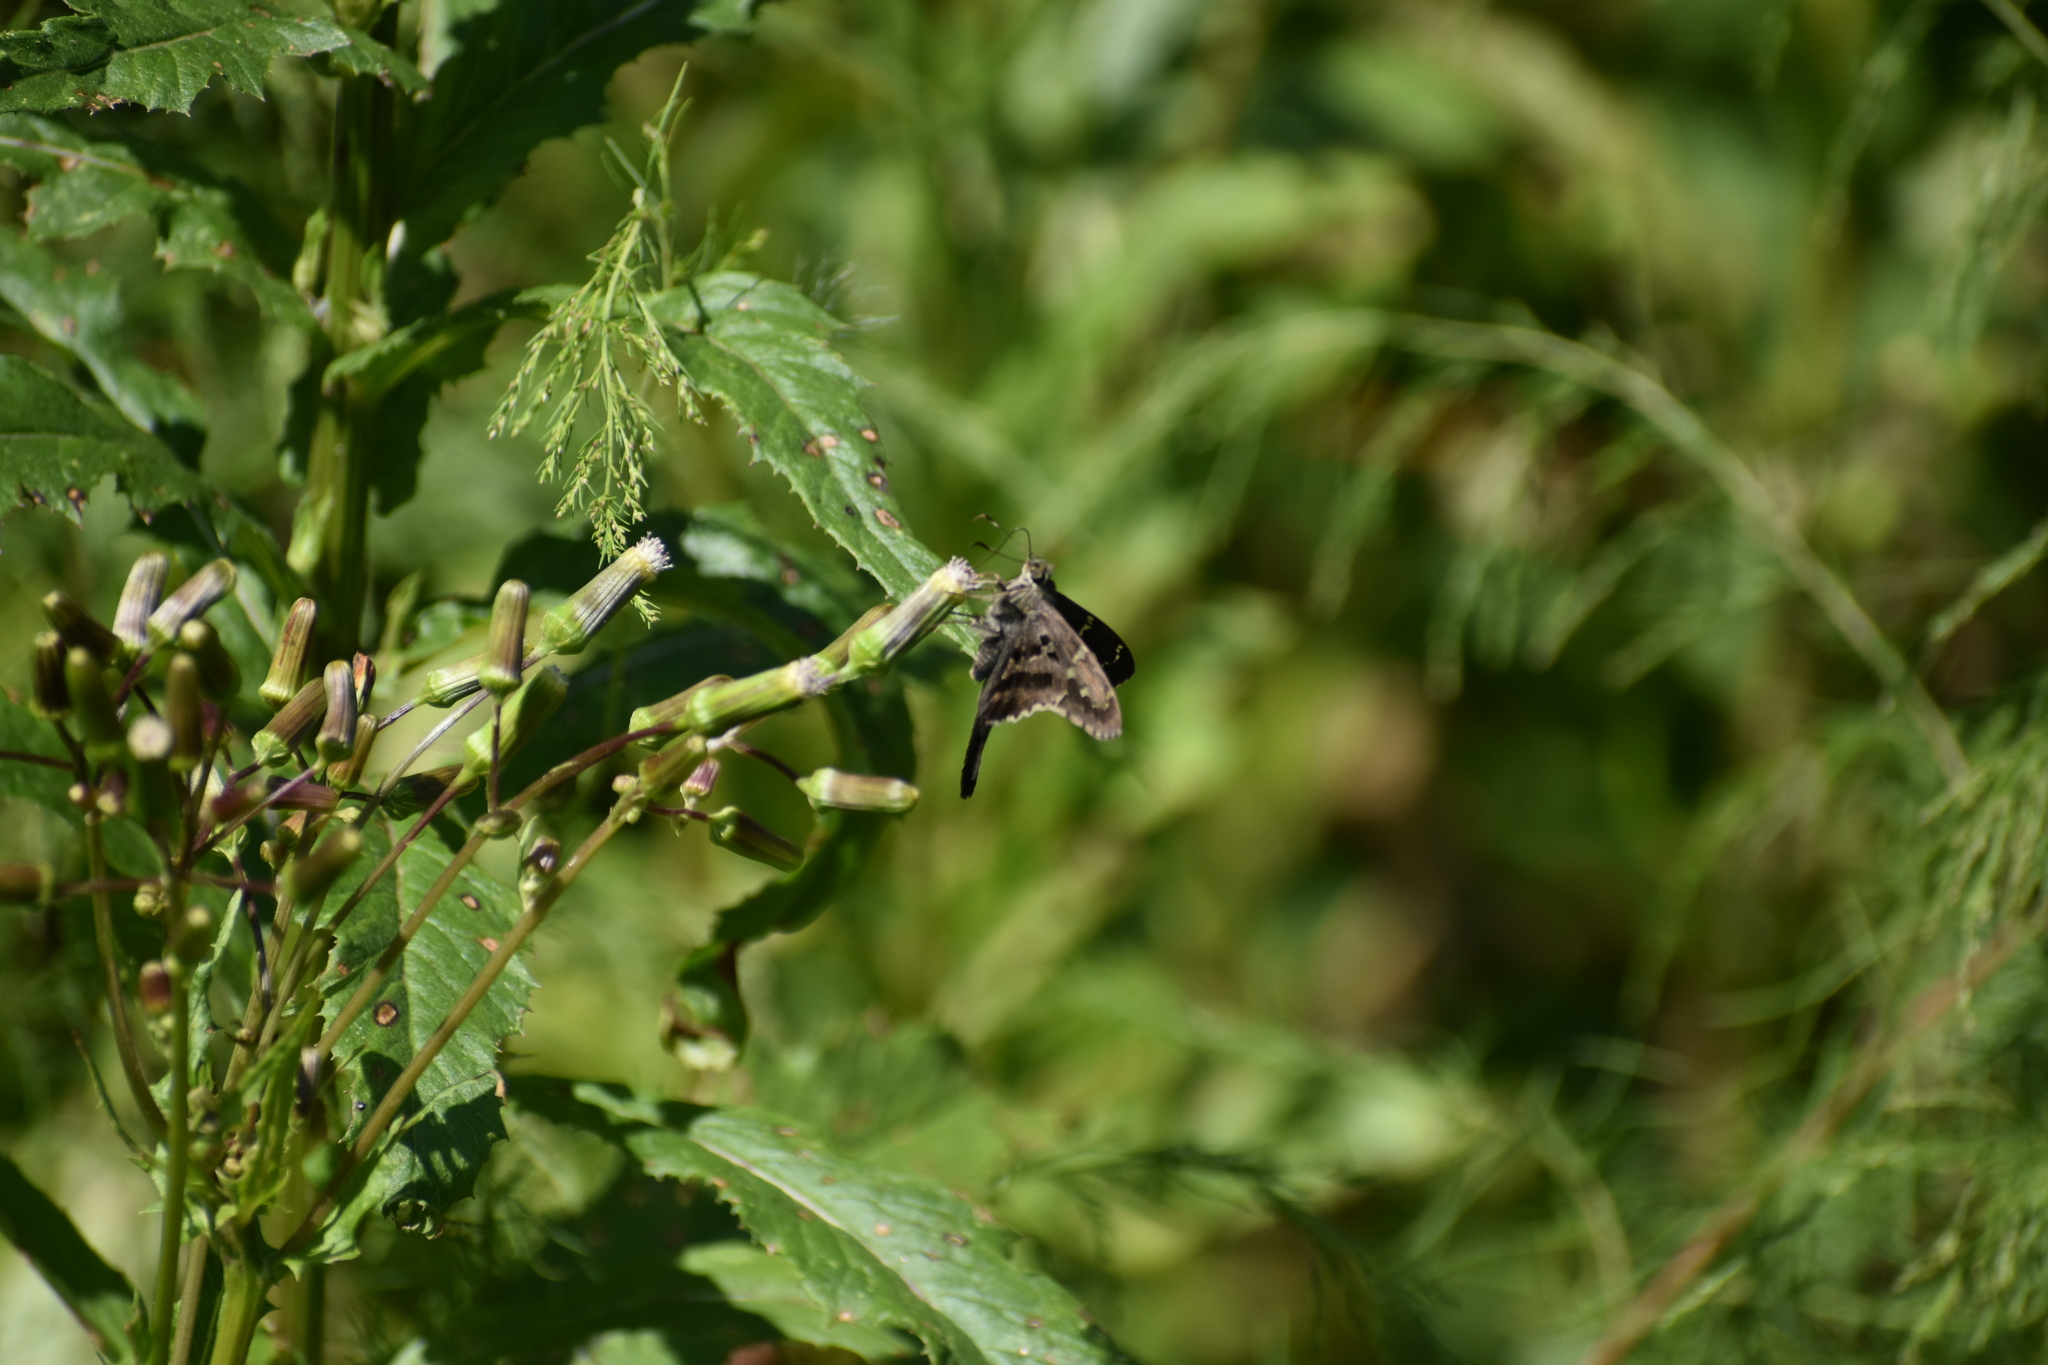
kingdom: Animalia
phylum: Arthropoda
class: Insecta
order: Lepidoptera
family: Hesperiidae
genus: Urbanus
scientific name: Urbanus proteus
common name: Long-tailed skipper
